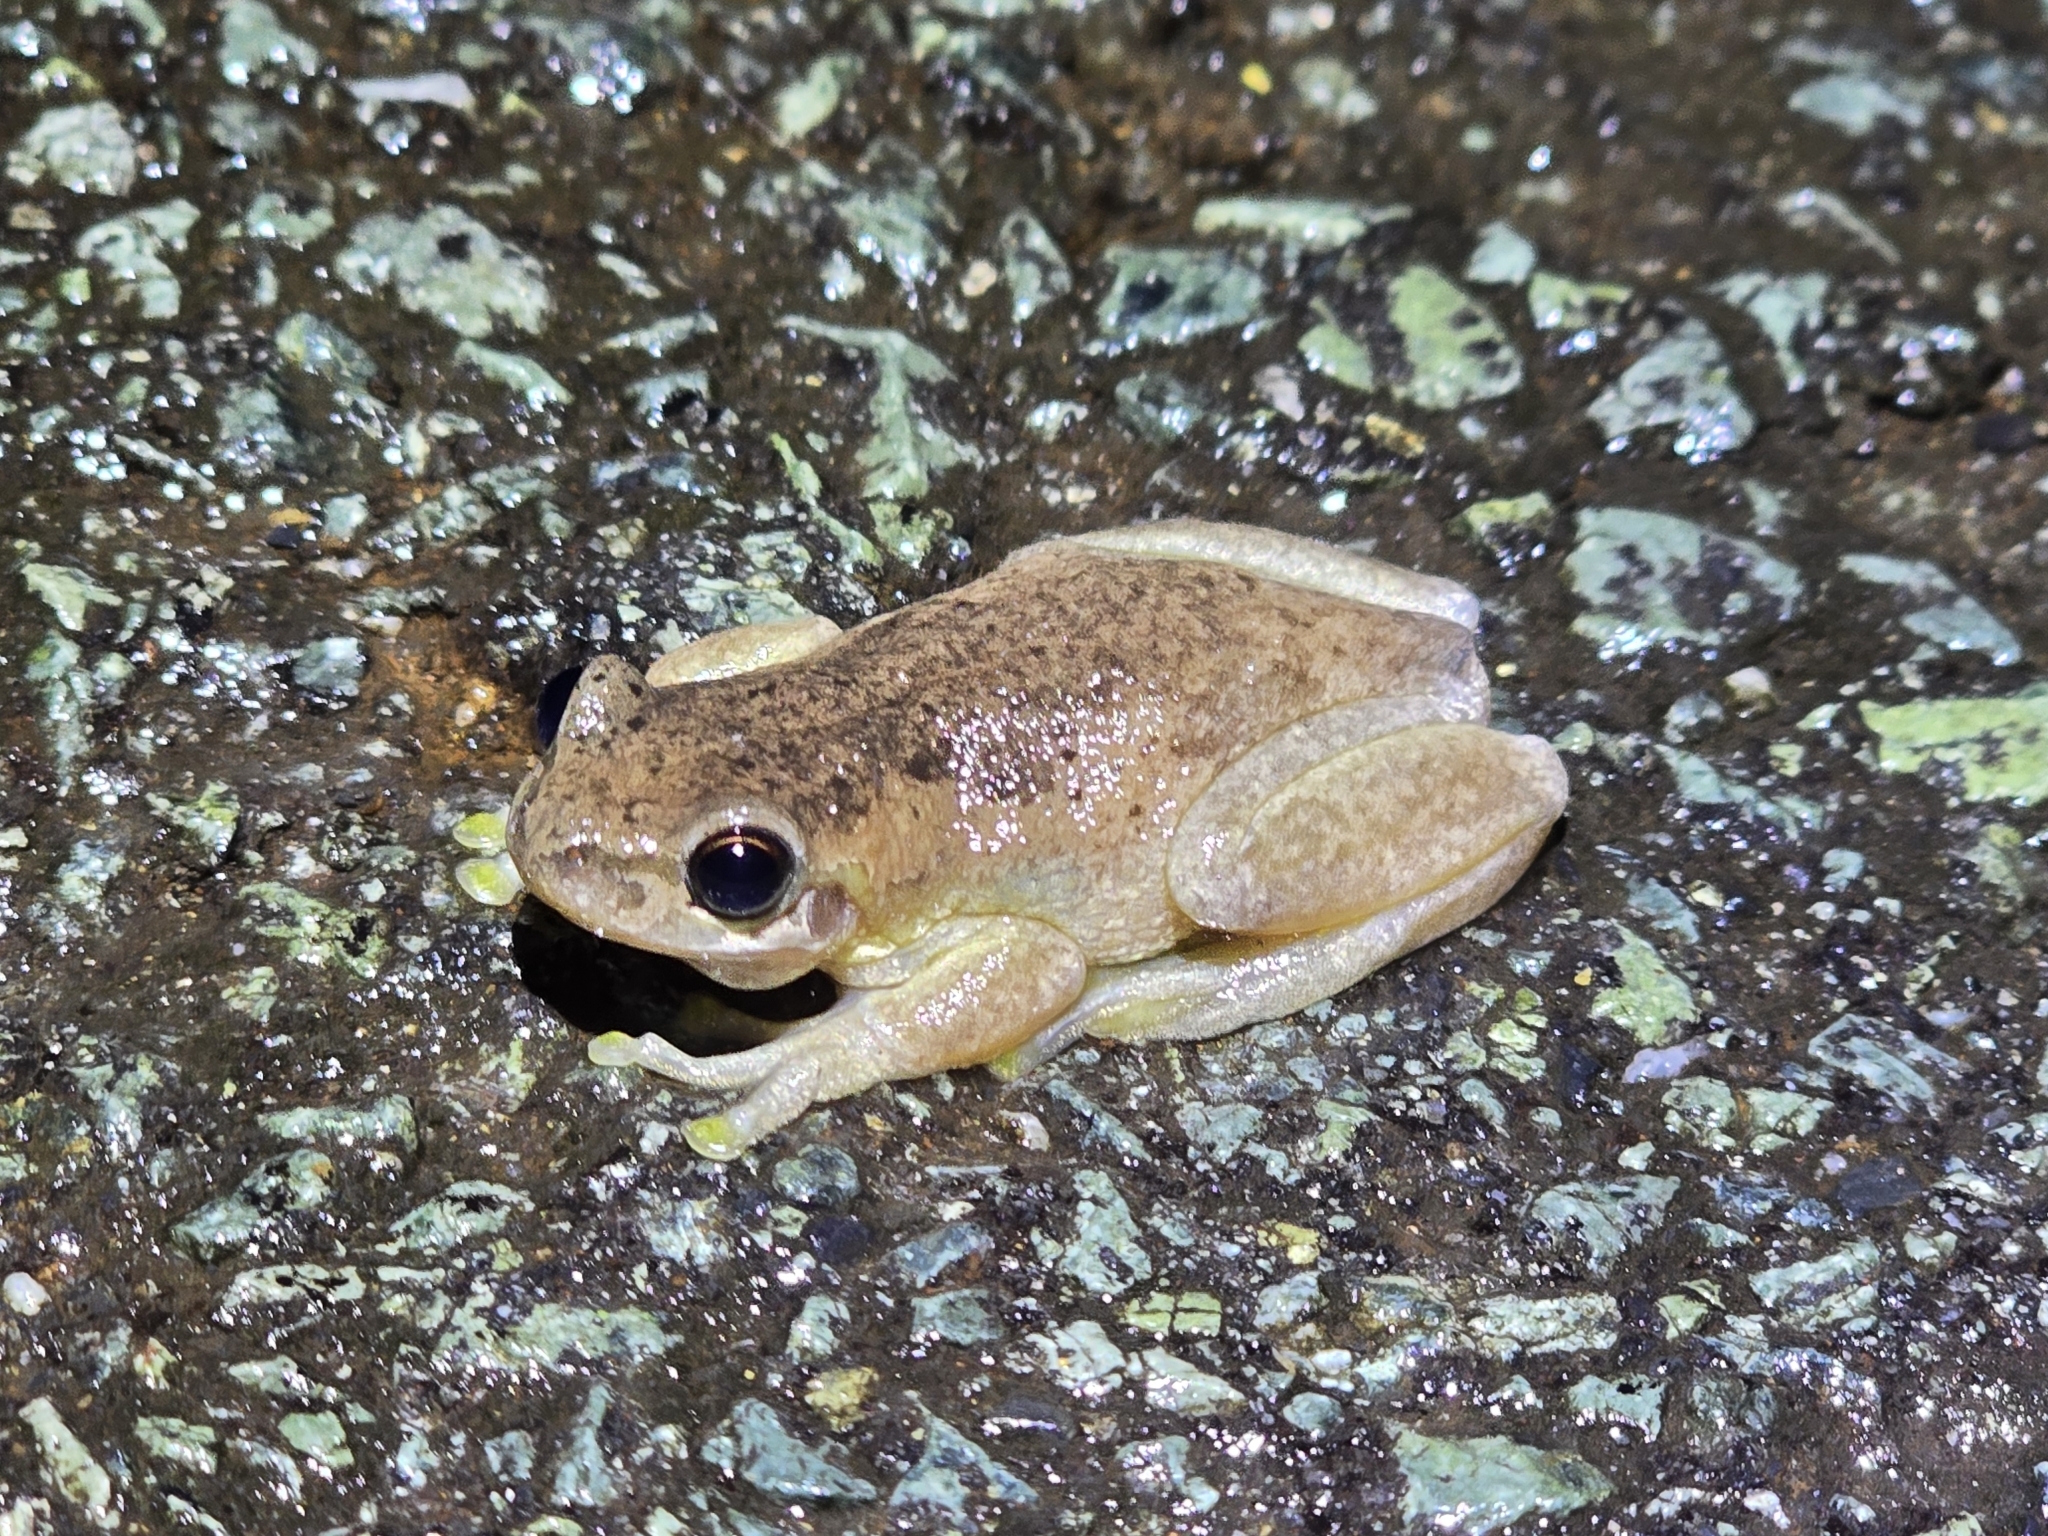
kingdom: Animalia
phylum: Chordata
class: Amphibia
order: Anura
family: Pelodryadidae
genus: Litoria
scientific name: Litoria dentata
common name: Bleating tree frog
